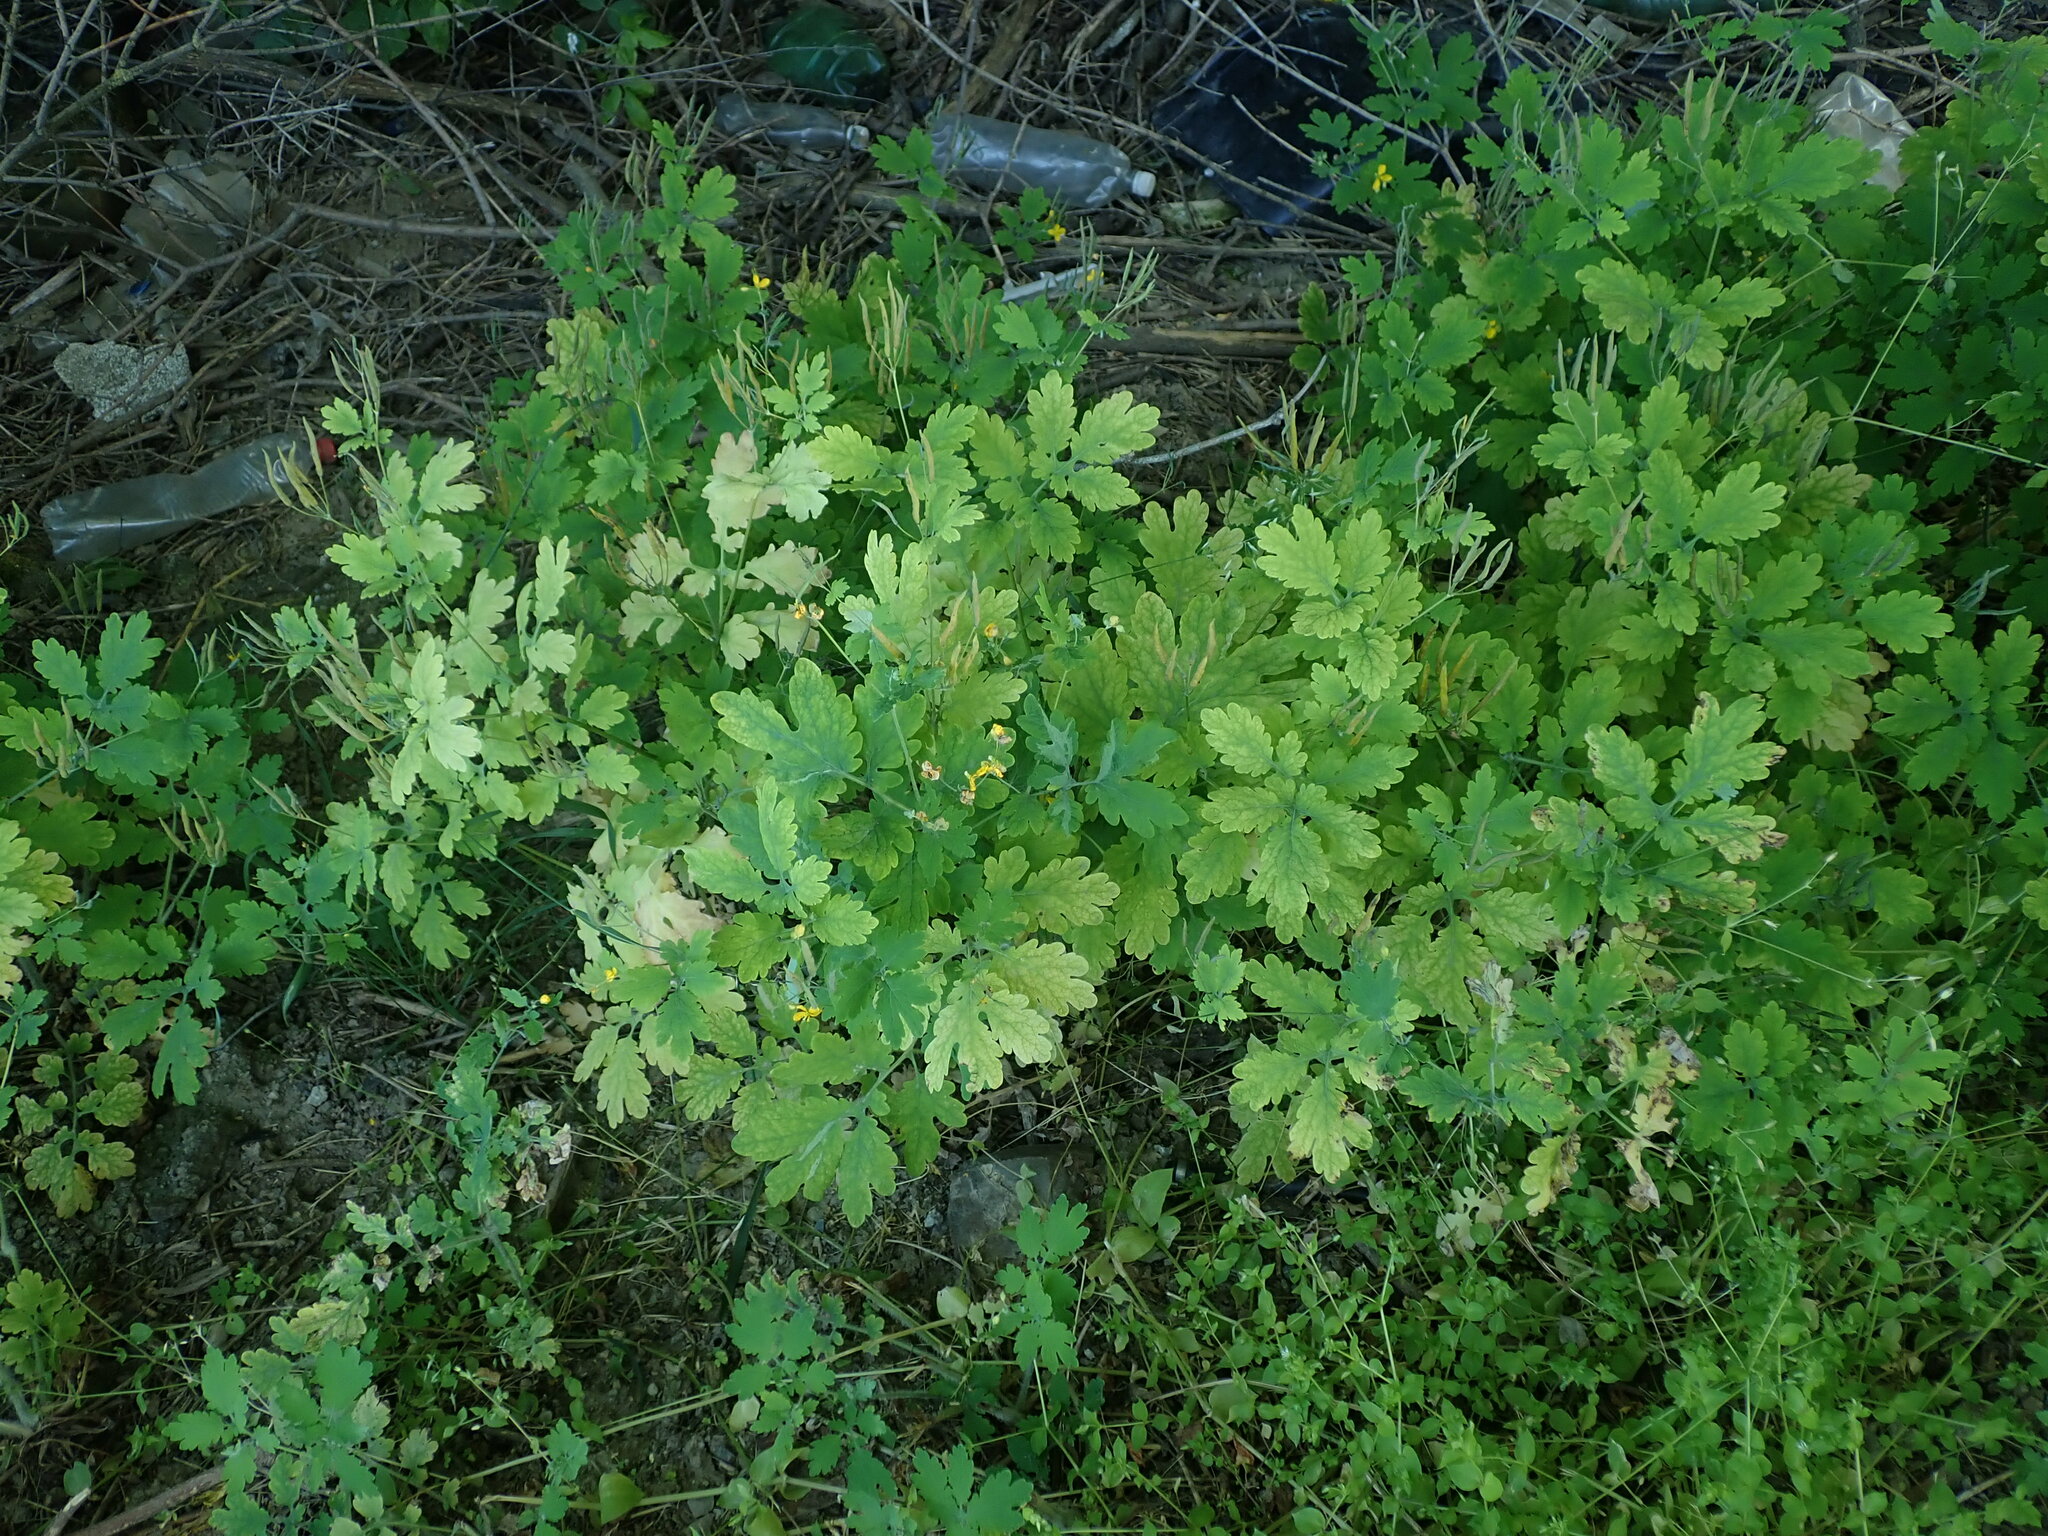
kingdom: Plantae
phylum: Tracheophyta
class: Magnoliopsida
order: Ranunculales
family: Papaveraceae
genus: Chelidonium
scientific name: Chelidonium majus
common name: Greater celandine
